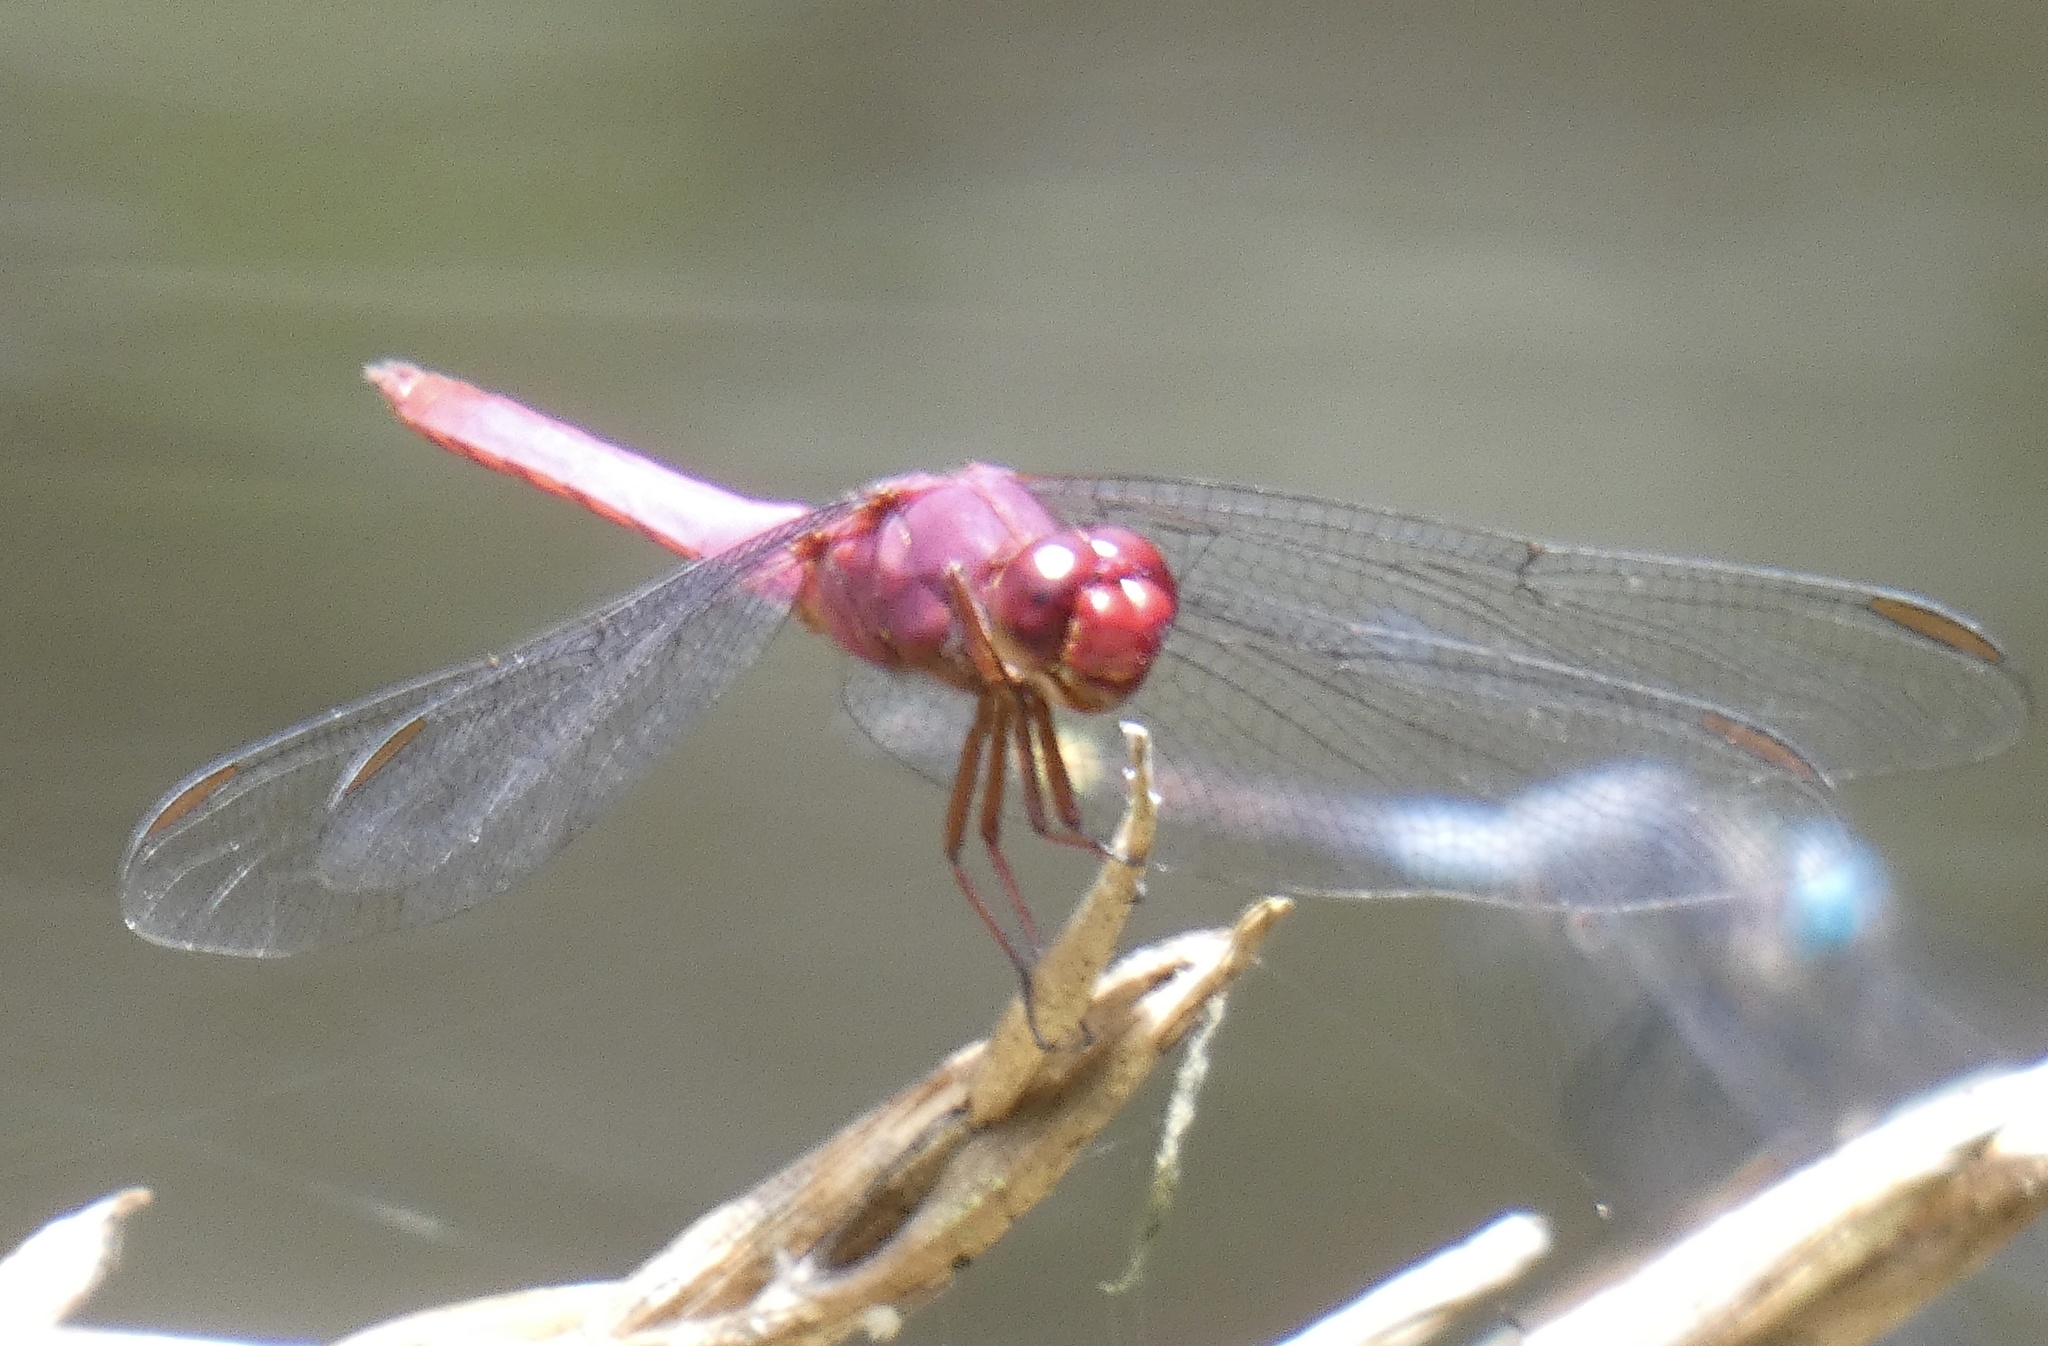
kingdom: Animalia
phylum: Arthropoda
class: Insecta
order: Odonata
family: Libellulidae
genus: Orthemis
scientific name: Orthemis discolor
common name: Carmine skimmer
